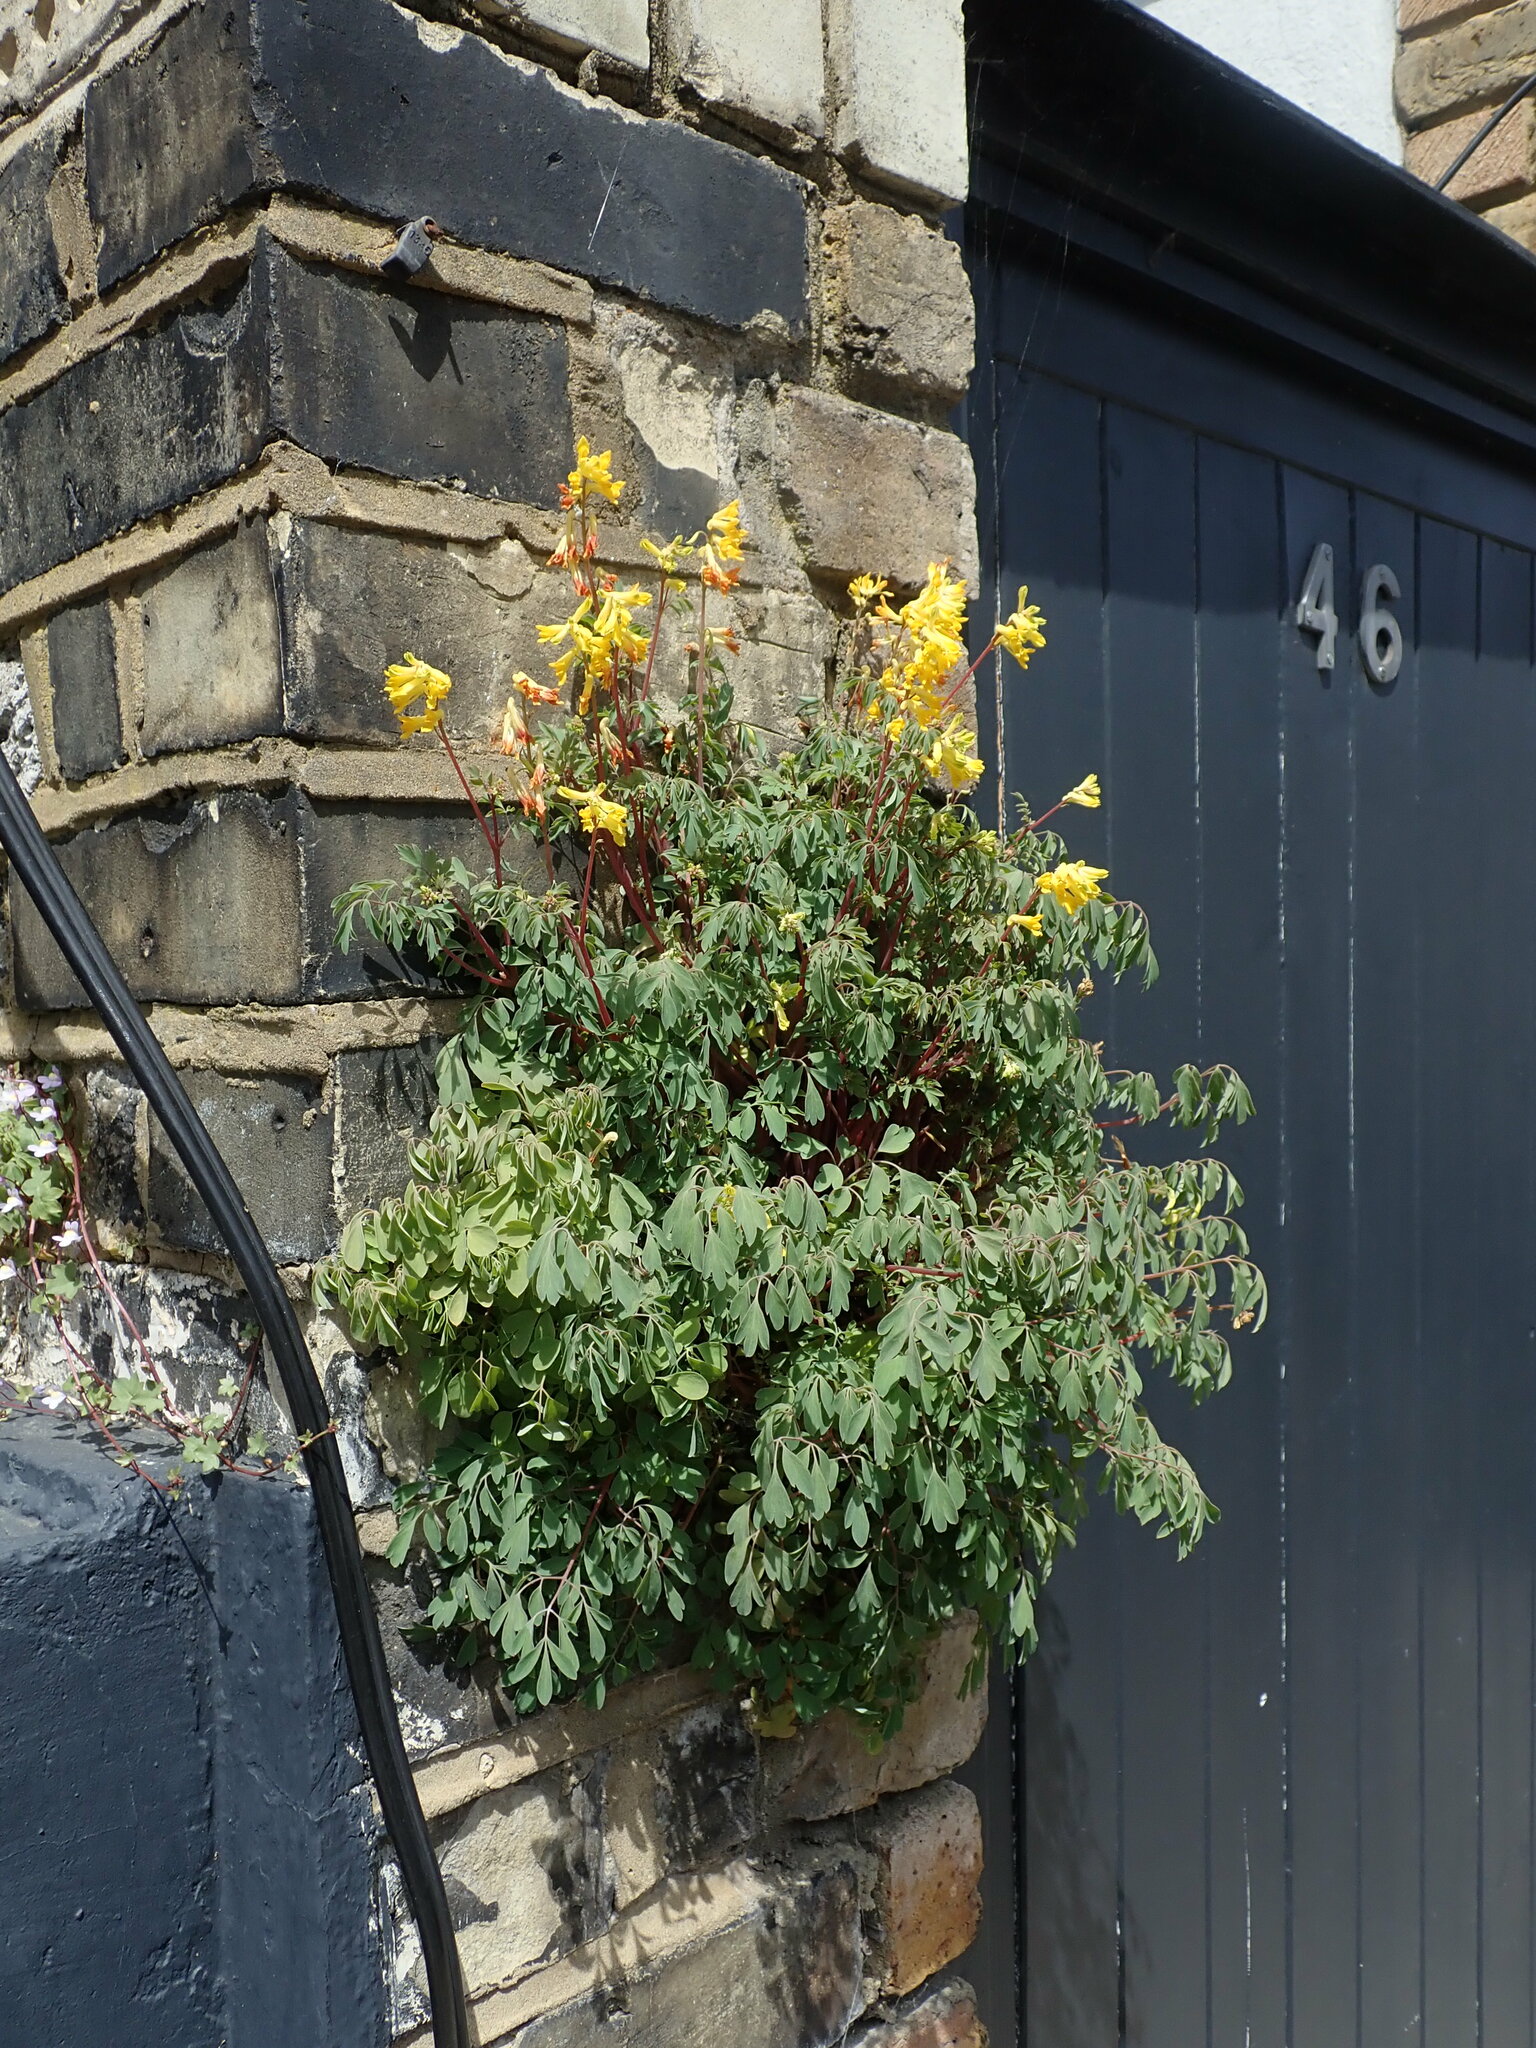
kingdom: Plantae
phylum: Tracheophyta
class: Magnoliopsida
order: Ranunculales
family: Papaveraceae
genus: Pseudofumaria
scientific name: Pseudofumaria lutea
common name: Yellow corydalis
